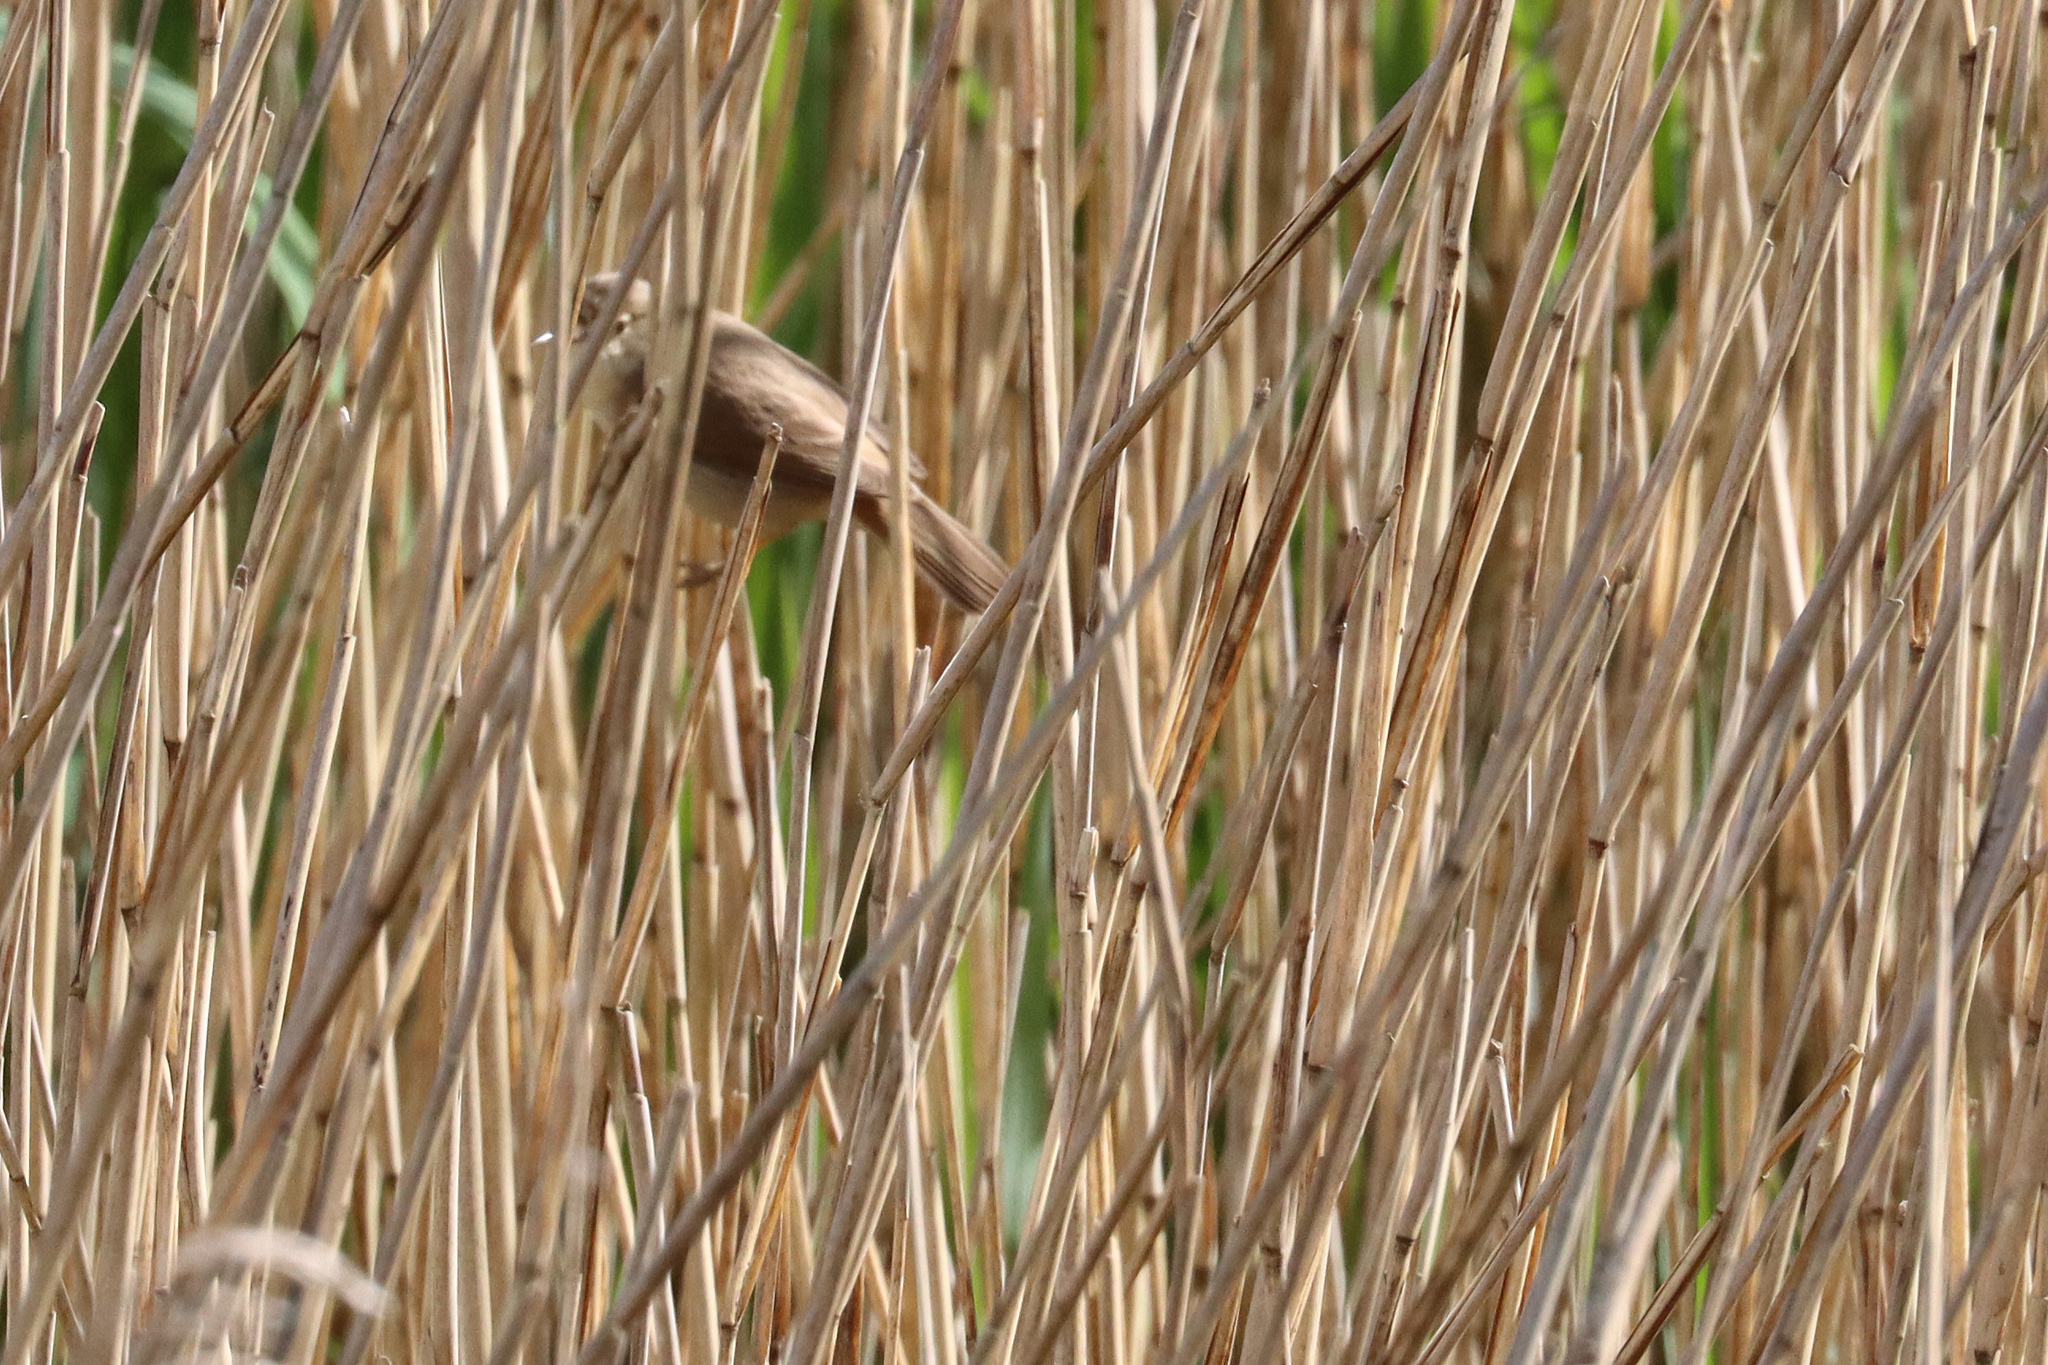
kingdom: Animalia
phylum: Chordata
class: Aves
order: Passeriformes
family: Acrocephalidae
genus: Acrocephalus
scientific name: Acrocephalus scirpaceus
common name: Eurasian reed warbler
